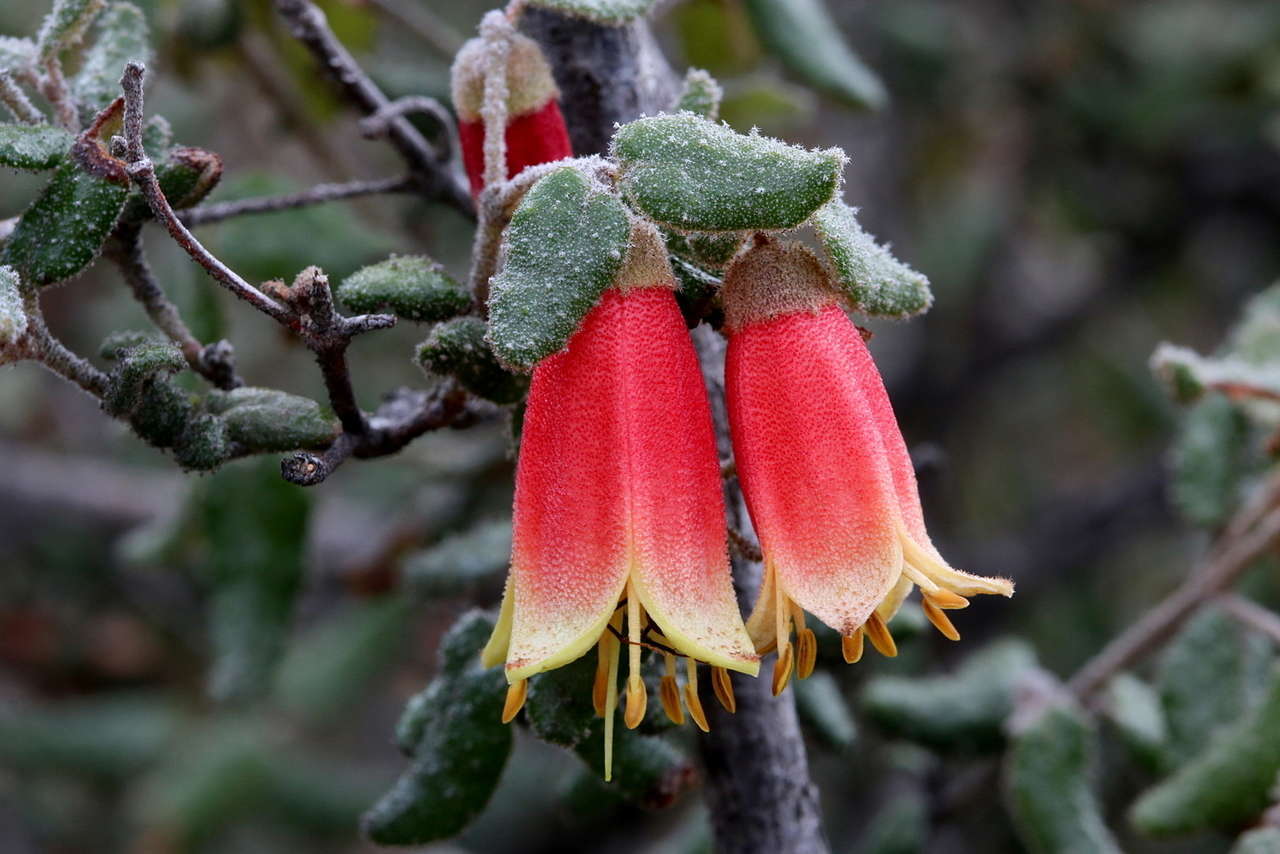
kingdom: Plantae
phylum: Tracheophyta
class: Magnoliopsida
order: Sapindales
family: Rutaceae
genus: Correa
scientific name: Correa reflexa
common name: Common correa
